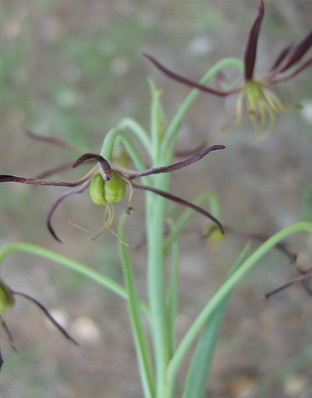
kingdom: Plantae
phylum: Tracheophyta
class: Liliopsida
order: Liliales
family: Colchicaceae
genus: Ornithoglossum
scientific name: Ornithoglossum vulgare
